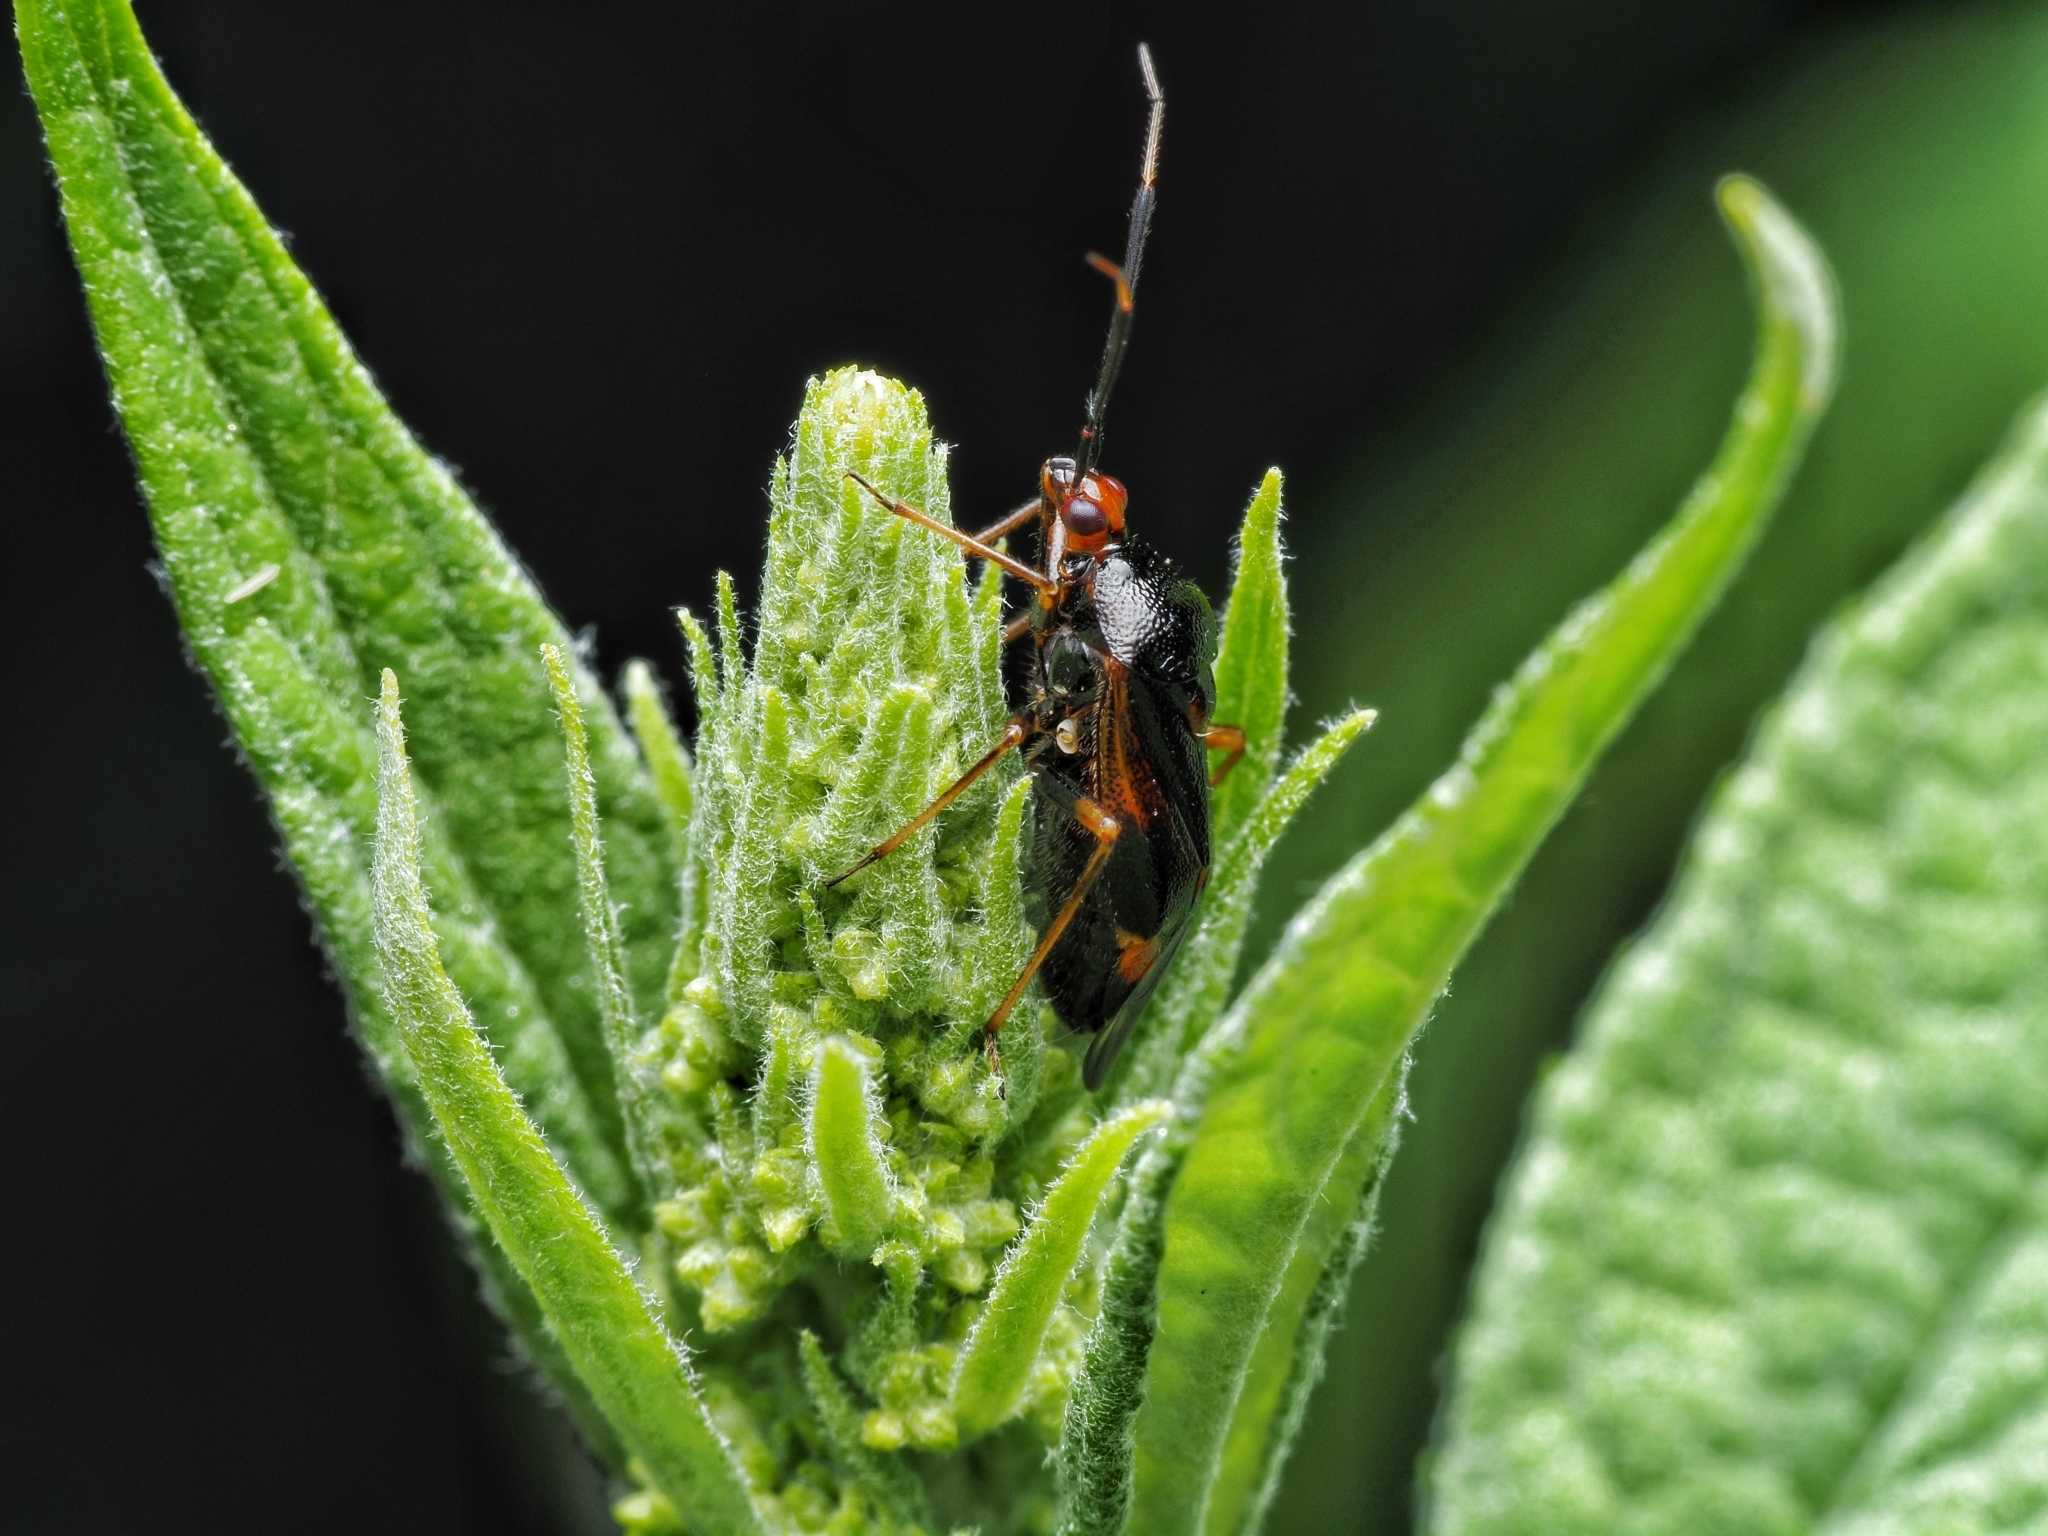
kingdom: Animalia
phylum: Arthropoda
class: Insecta
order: Hemiptera
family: Miridae
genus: Deraeocoris
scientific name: Deraeocoris ruber
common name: Plant bug
